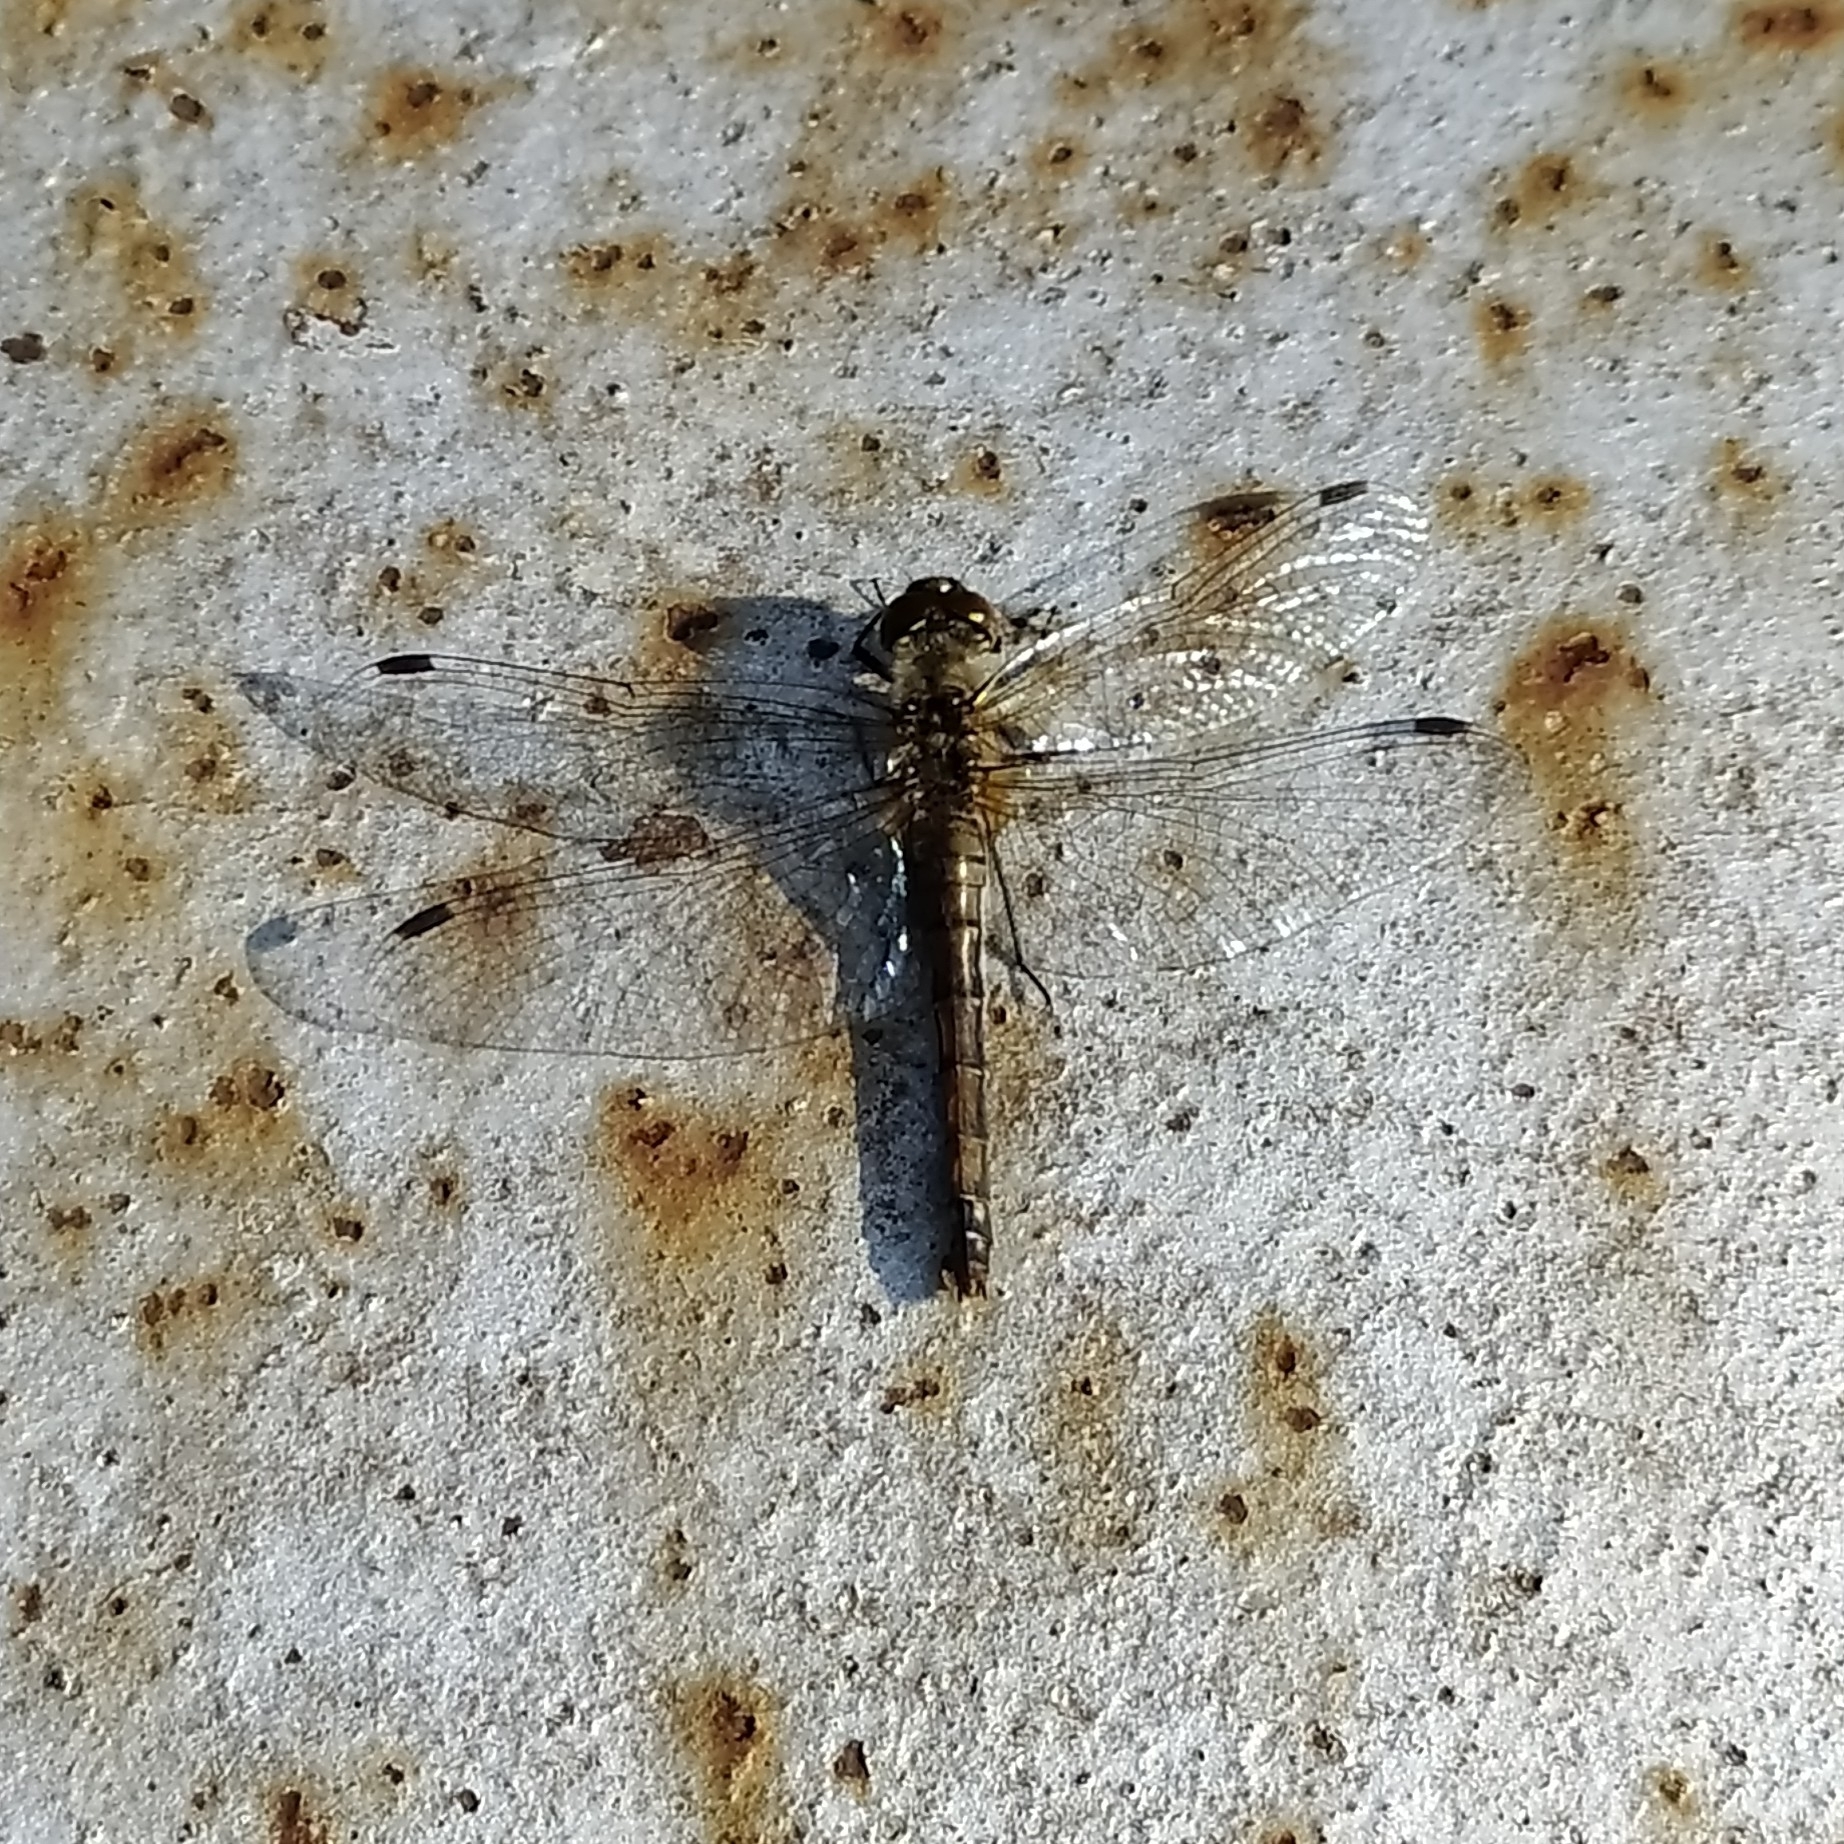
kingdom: Animalia
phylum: Arthropoda
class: Insecta
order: Odonata
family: Libellulidae
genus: Sympetrum
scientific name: Sympetrum danae
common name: Black darter
